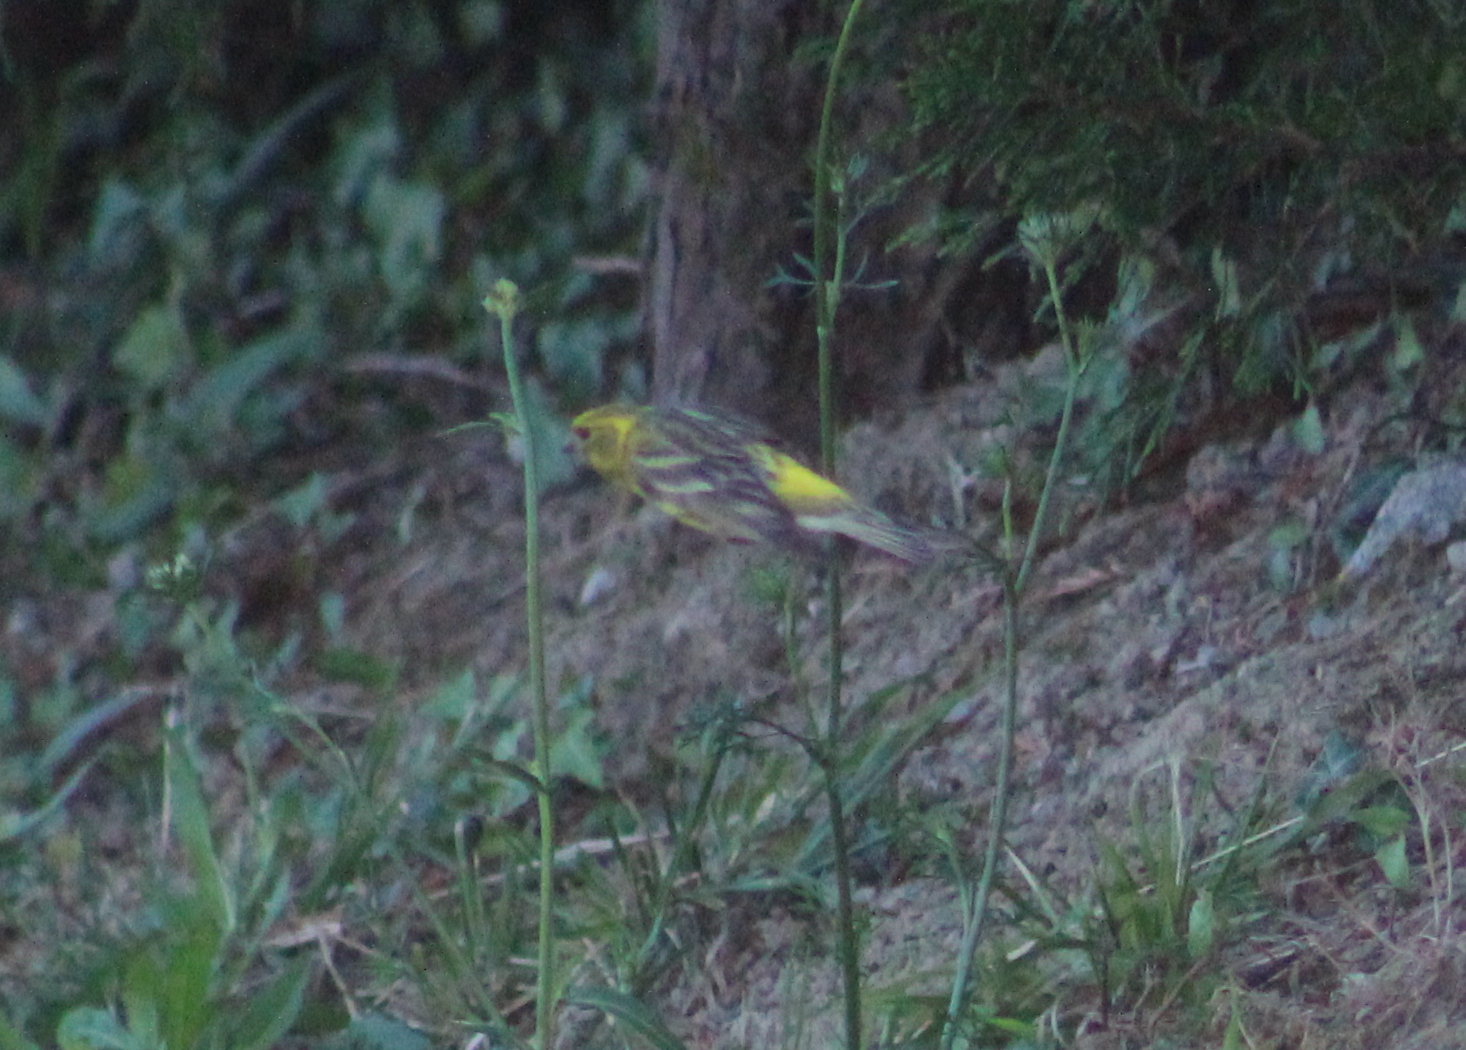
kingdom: Animalia
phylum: Chordata
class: Aves
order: Passeriformes
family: Fringillidae
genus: Serinus
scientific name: Serinus serinus
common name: European serin
